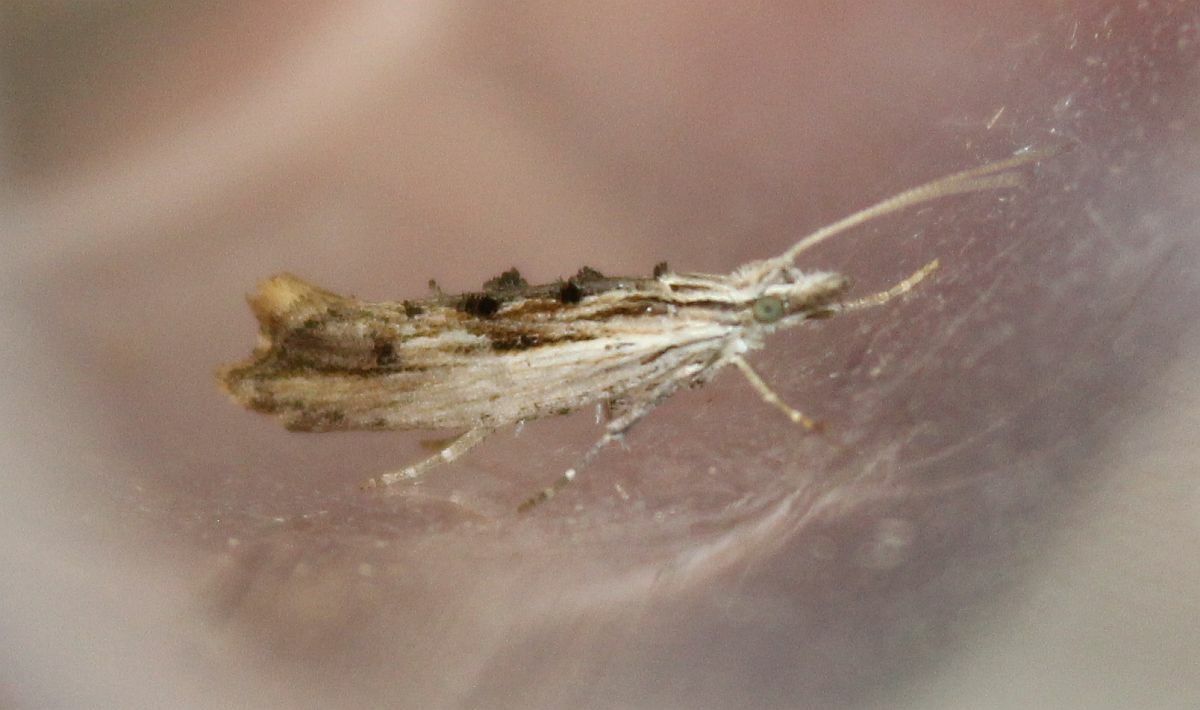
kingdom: Animalia
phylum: Arthropoda
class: Insecta
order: Lepidoptera
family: Ypsolophidae
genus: Ypsolopha
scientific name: Ypsolopha scabrella
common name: Wainscot smudge
